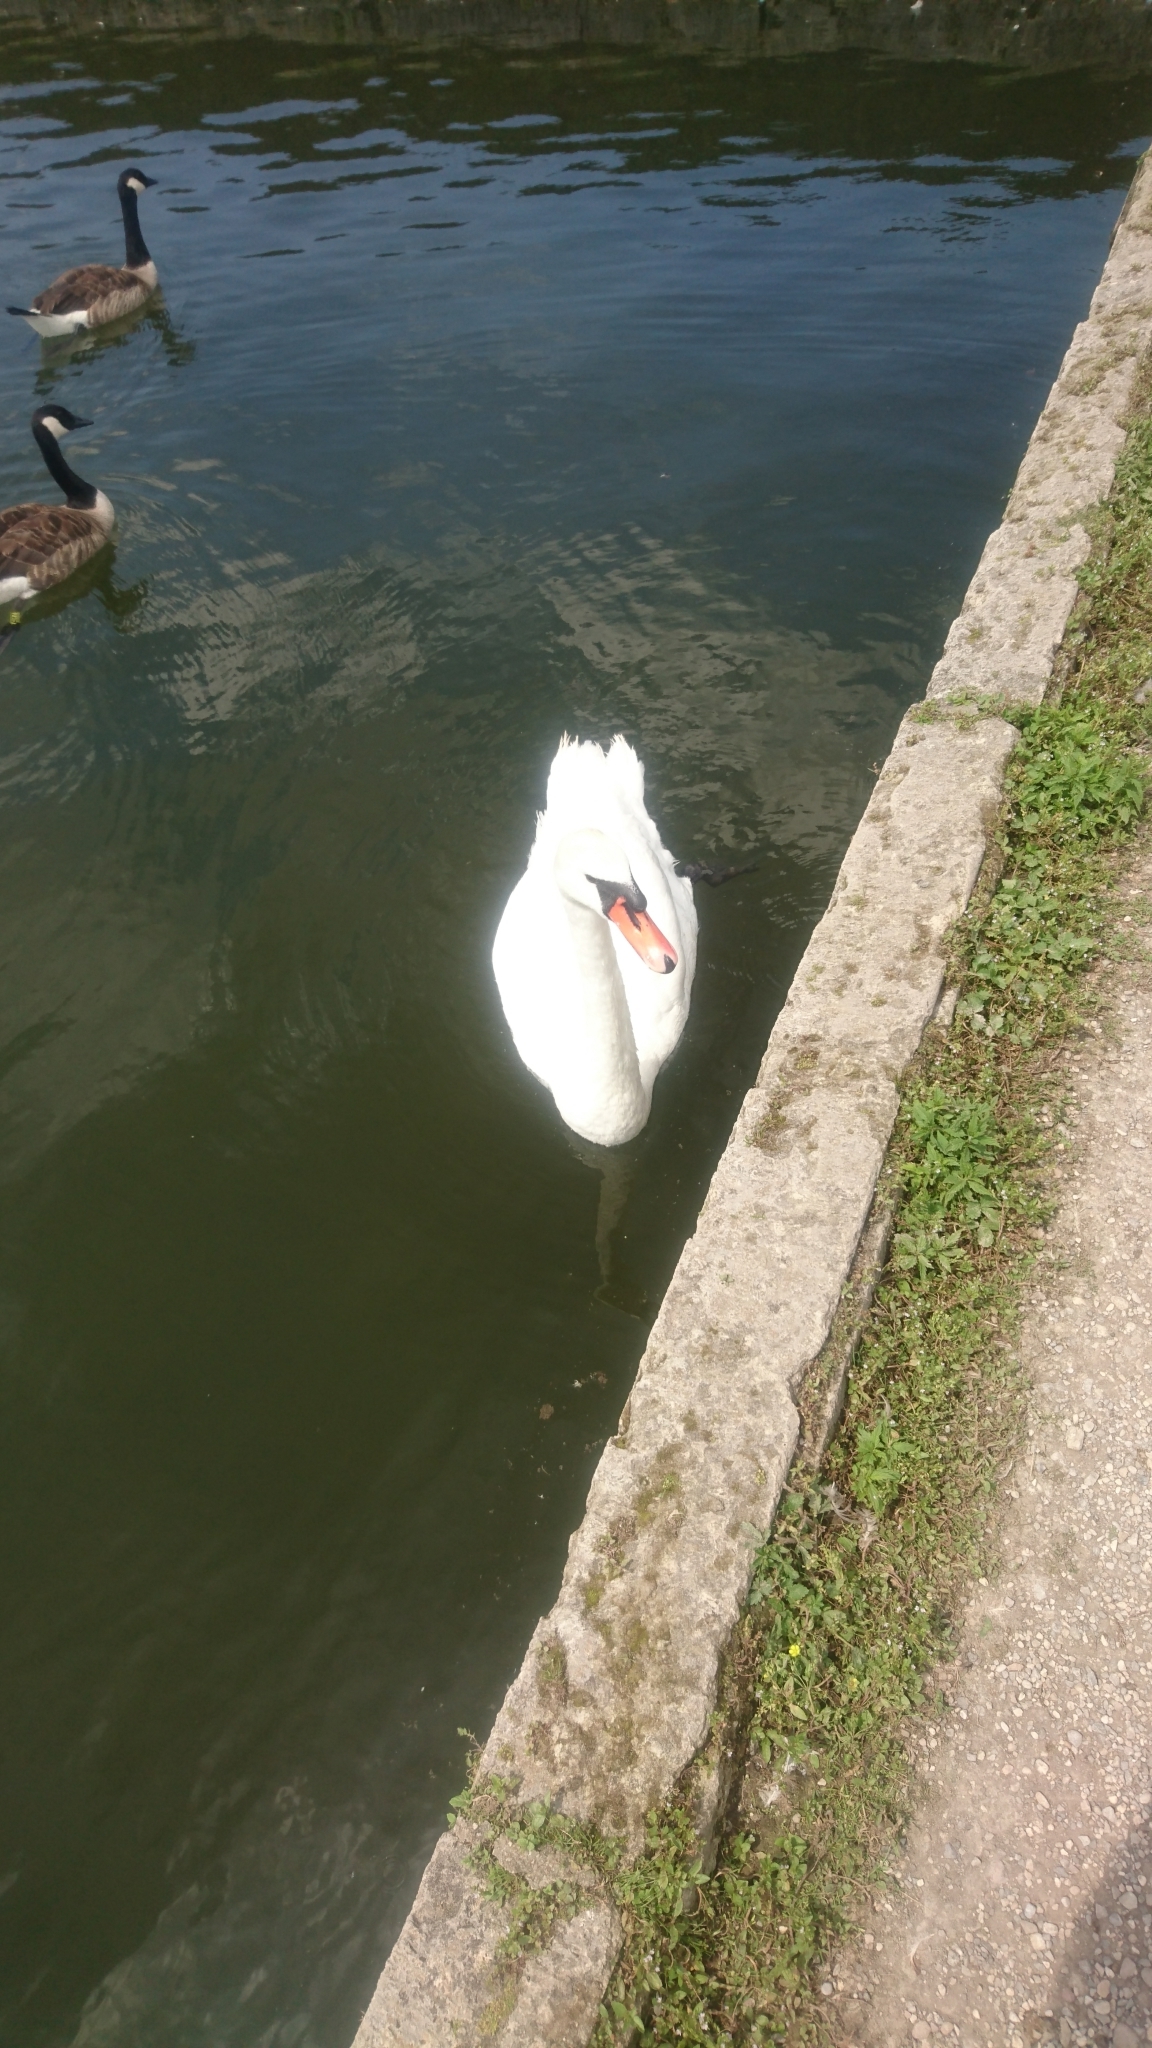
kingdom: Animalia
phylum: Chordata
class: Aves
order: Anseriformes
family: Anatidae
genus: Cygnus
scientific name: Cygnus olor
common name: Mute swan
